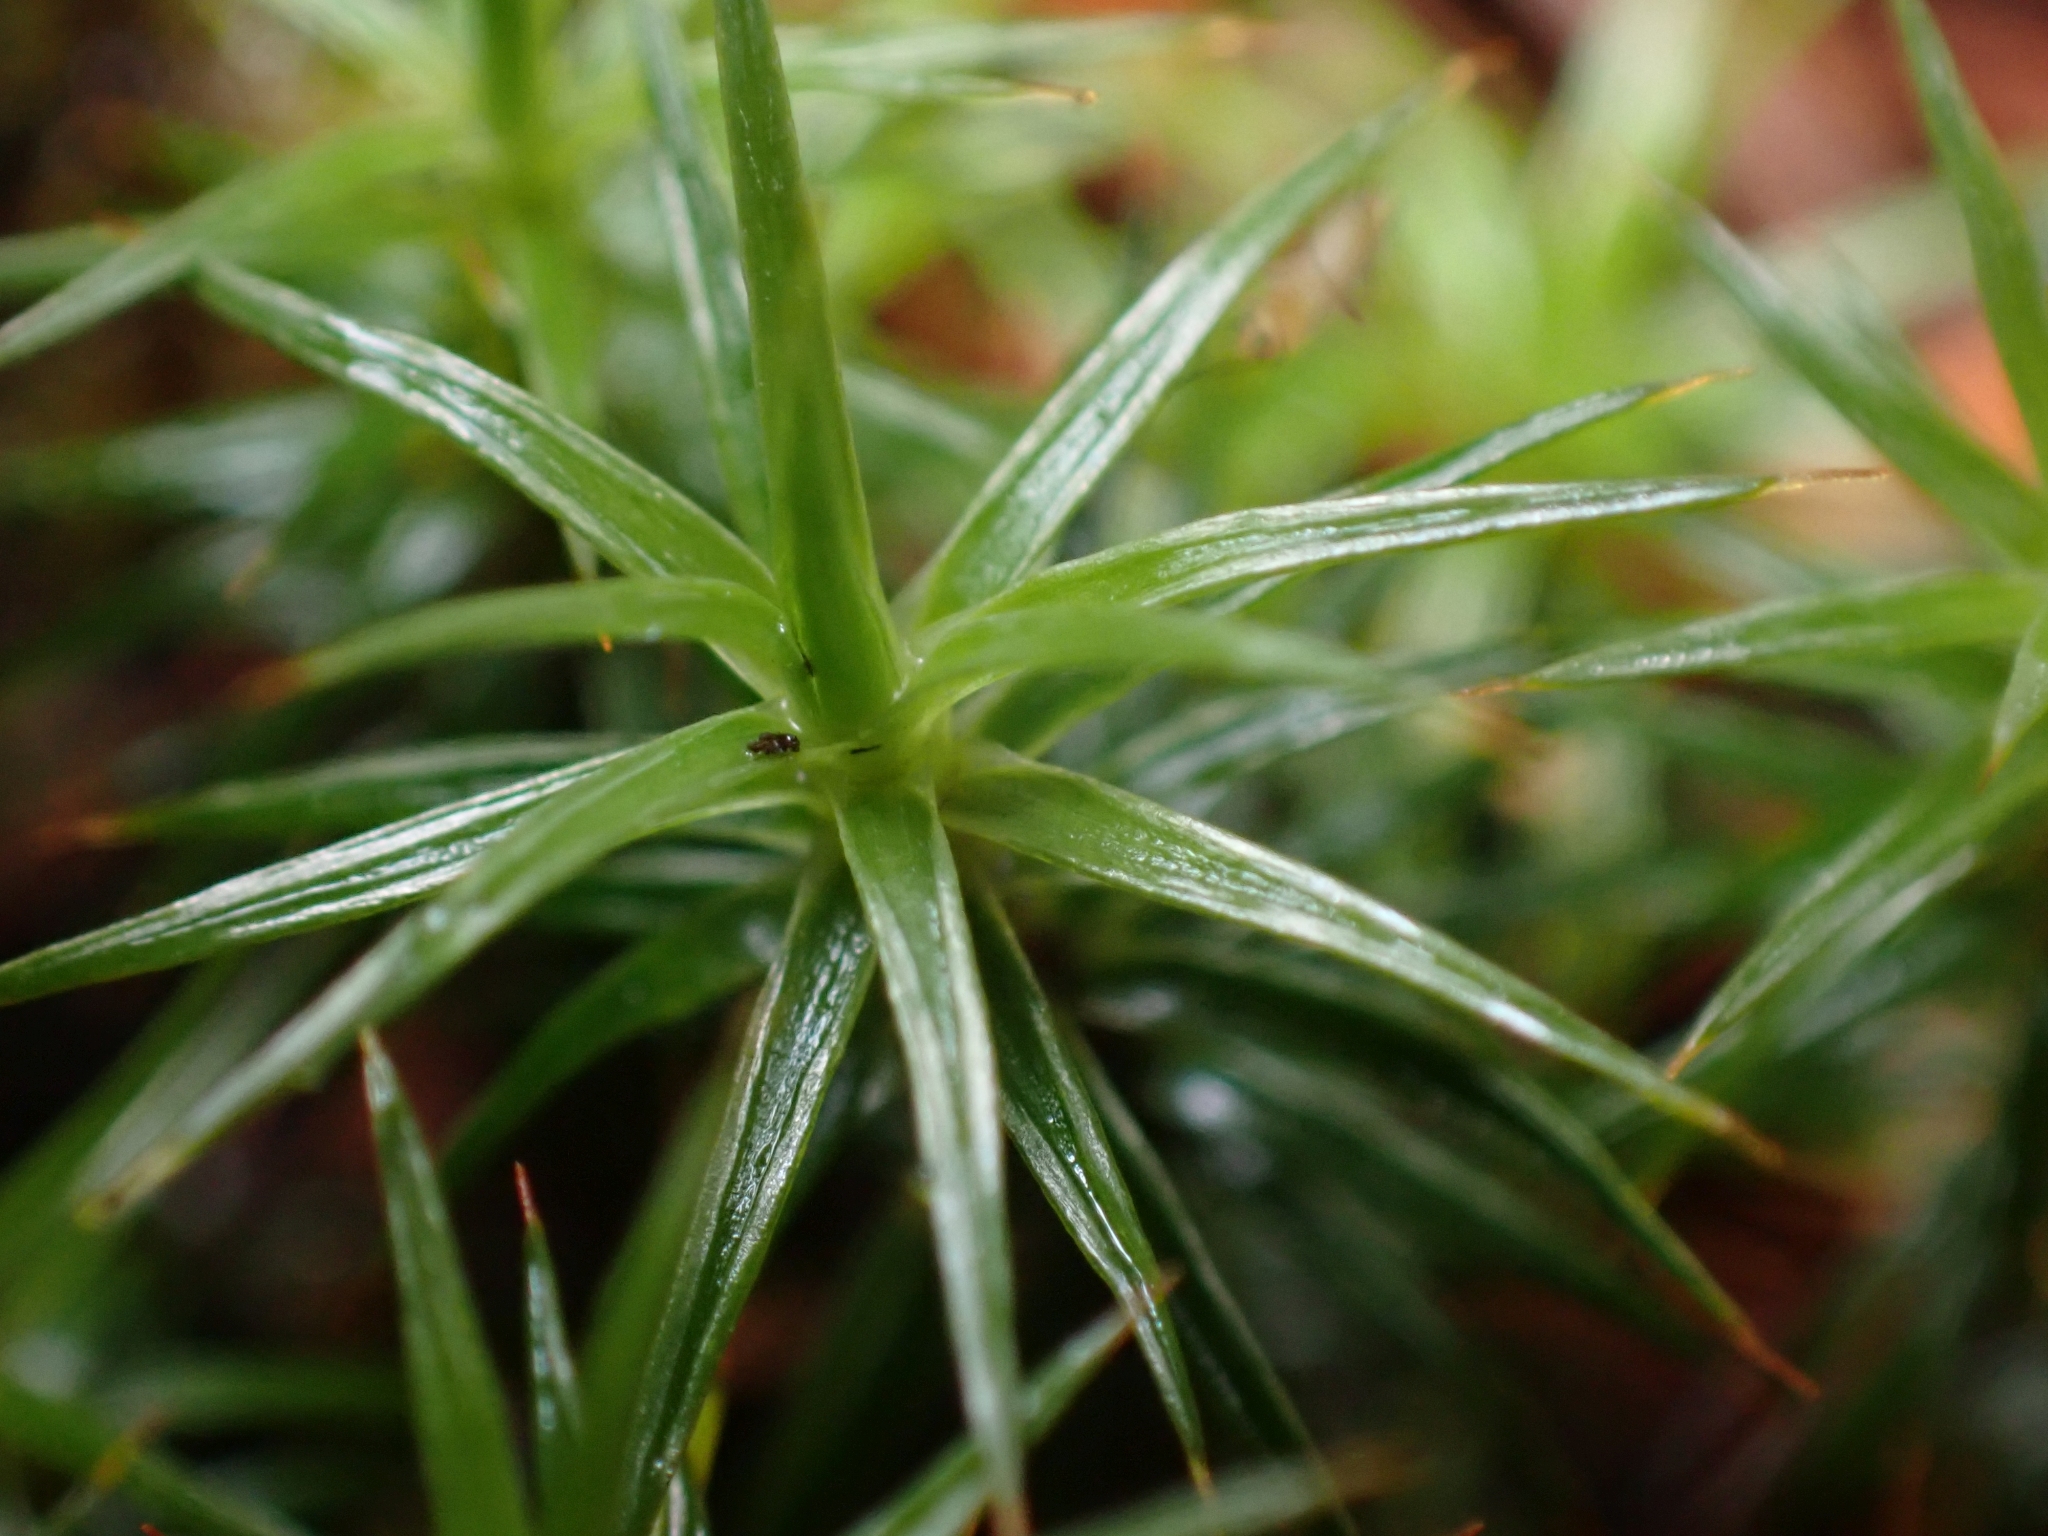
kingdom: Plantae
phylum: Bryophyta
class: Polytrichopsida
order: Polytrichales
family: Polytrichaceae
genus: Polytrichum
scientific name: Polytrichum juniperinum
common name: Juniper haircap moss
